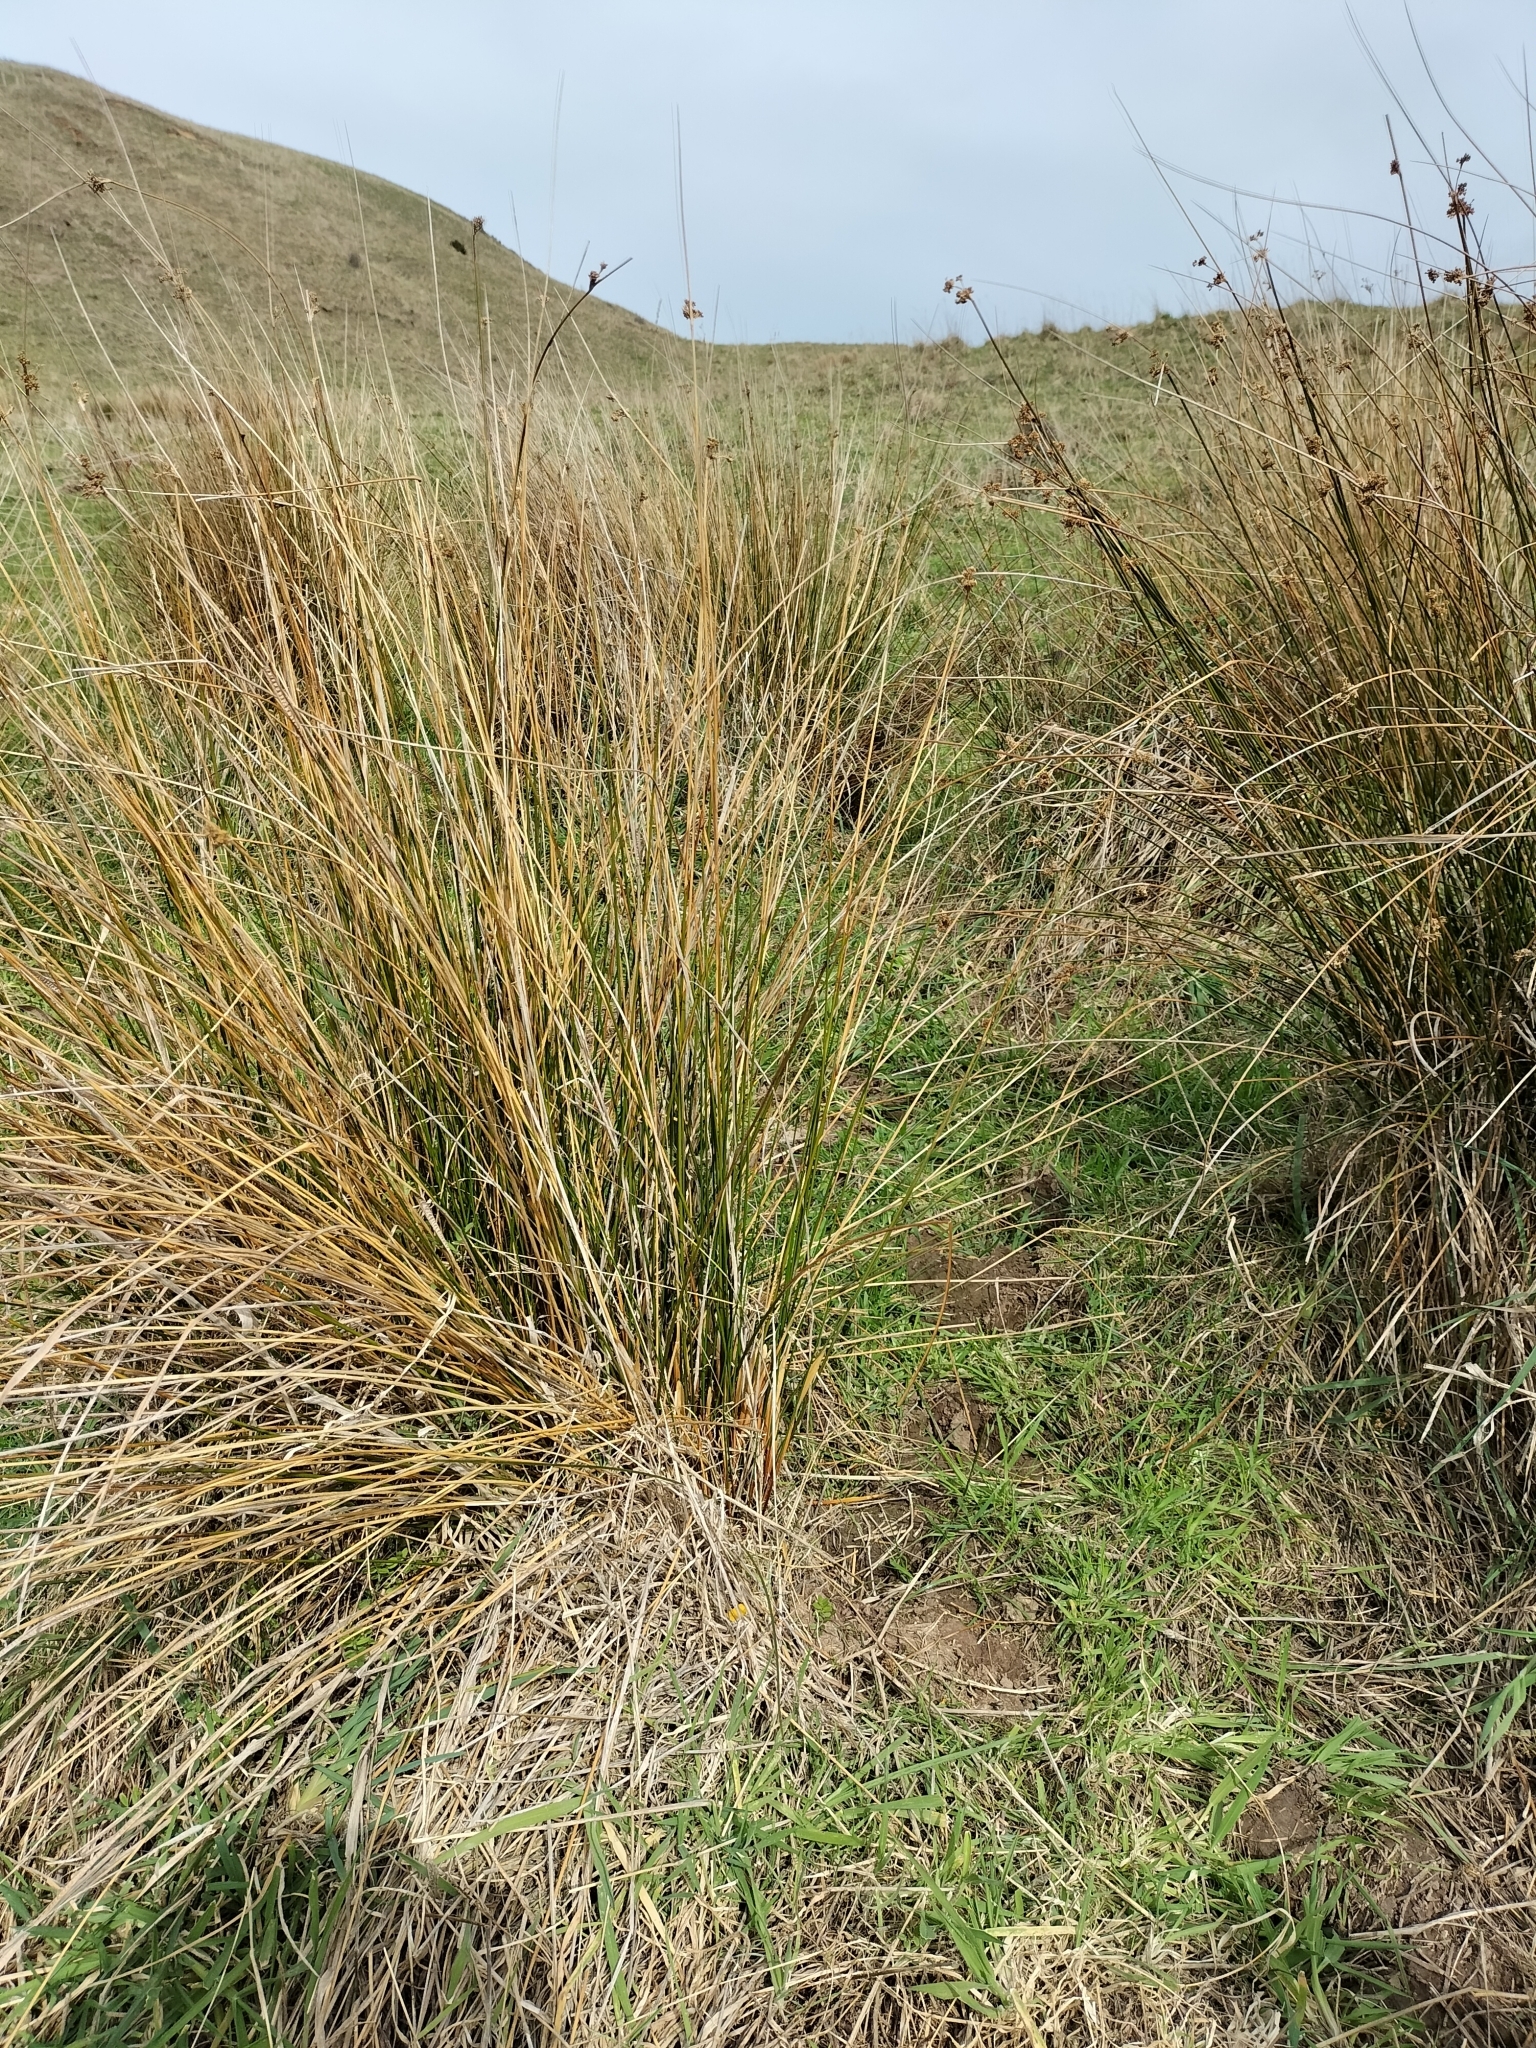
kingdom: Plantae
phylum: Tracheophyta
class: Liliopsida
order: Poales
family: Juncaceae
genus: Juncus
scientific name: Juncus edgariae
